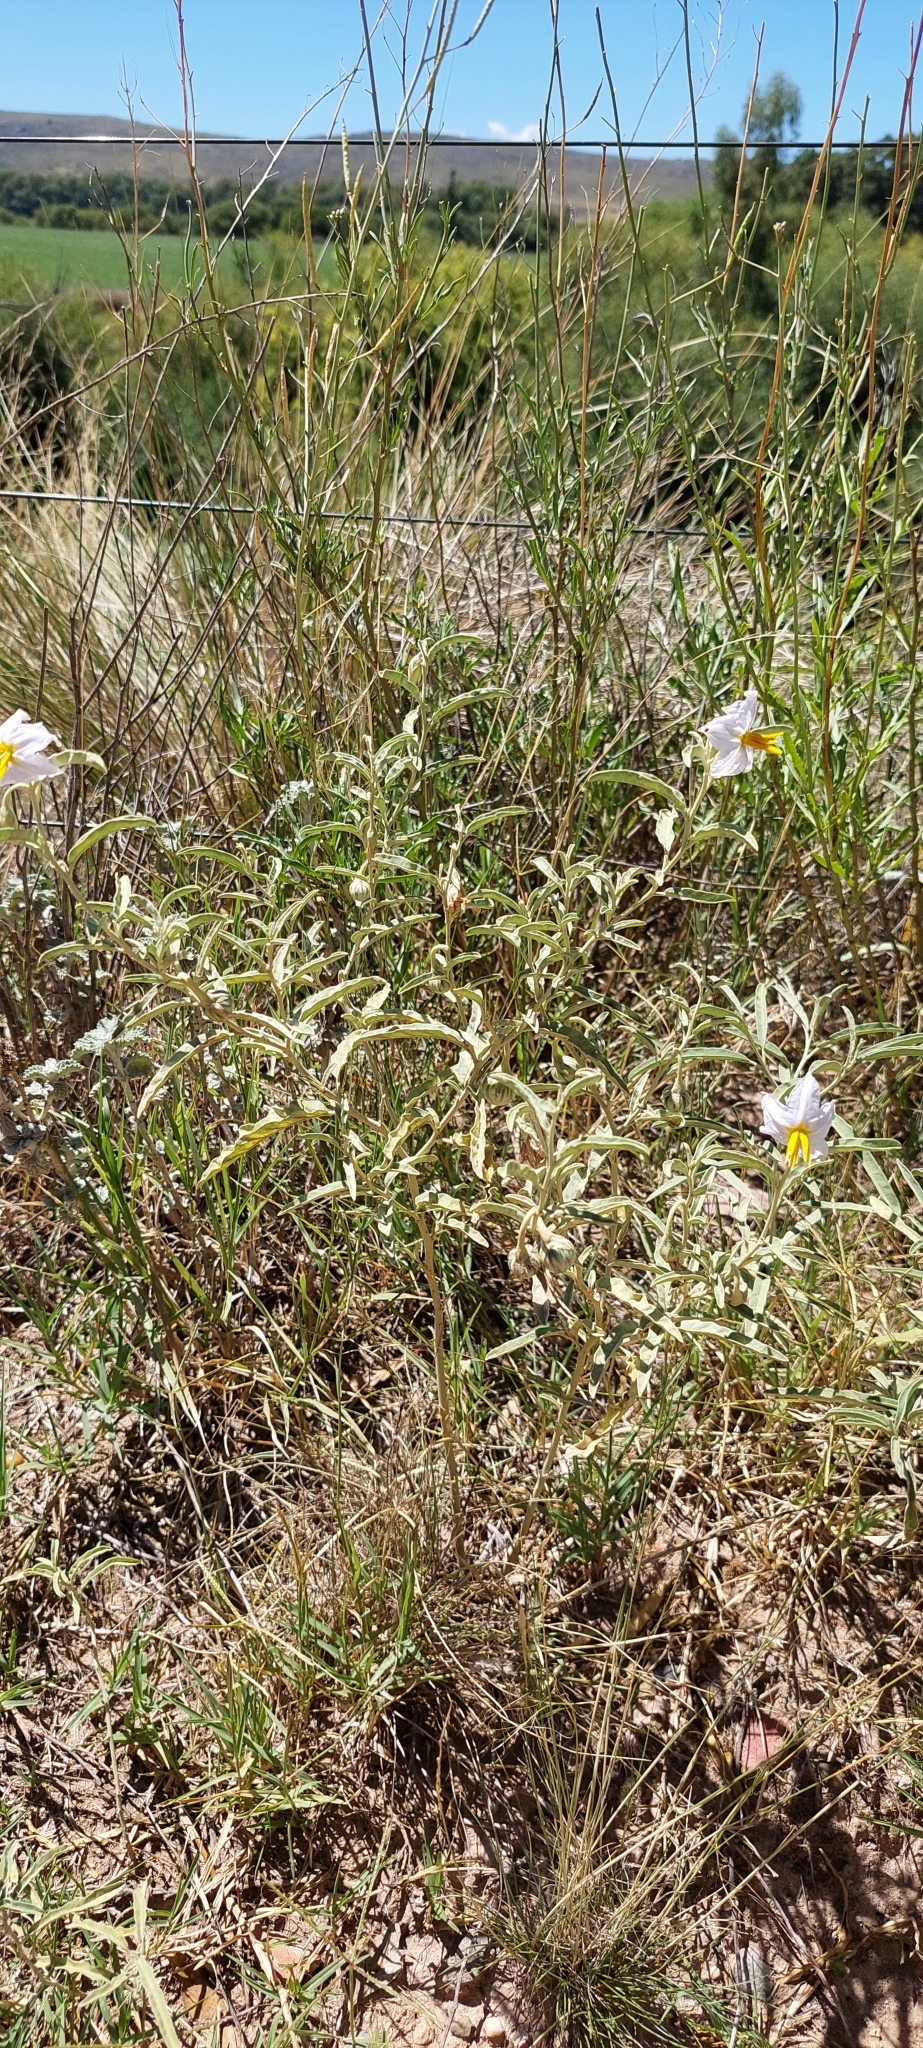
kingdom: Plantae
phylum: Tracheophyta
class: Magnoliopsida
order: Solanales
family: Solanaceae
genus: Solanum
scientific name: Solanum elaeagnifolium
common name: Silverleaf nightshade
